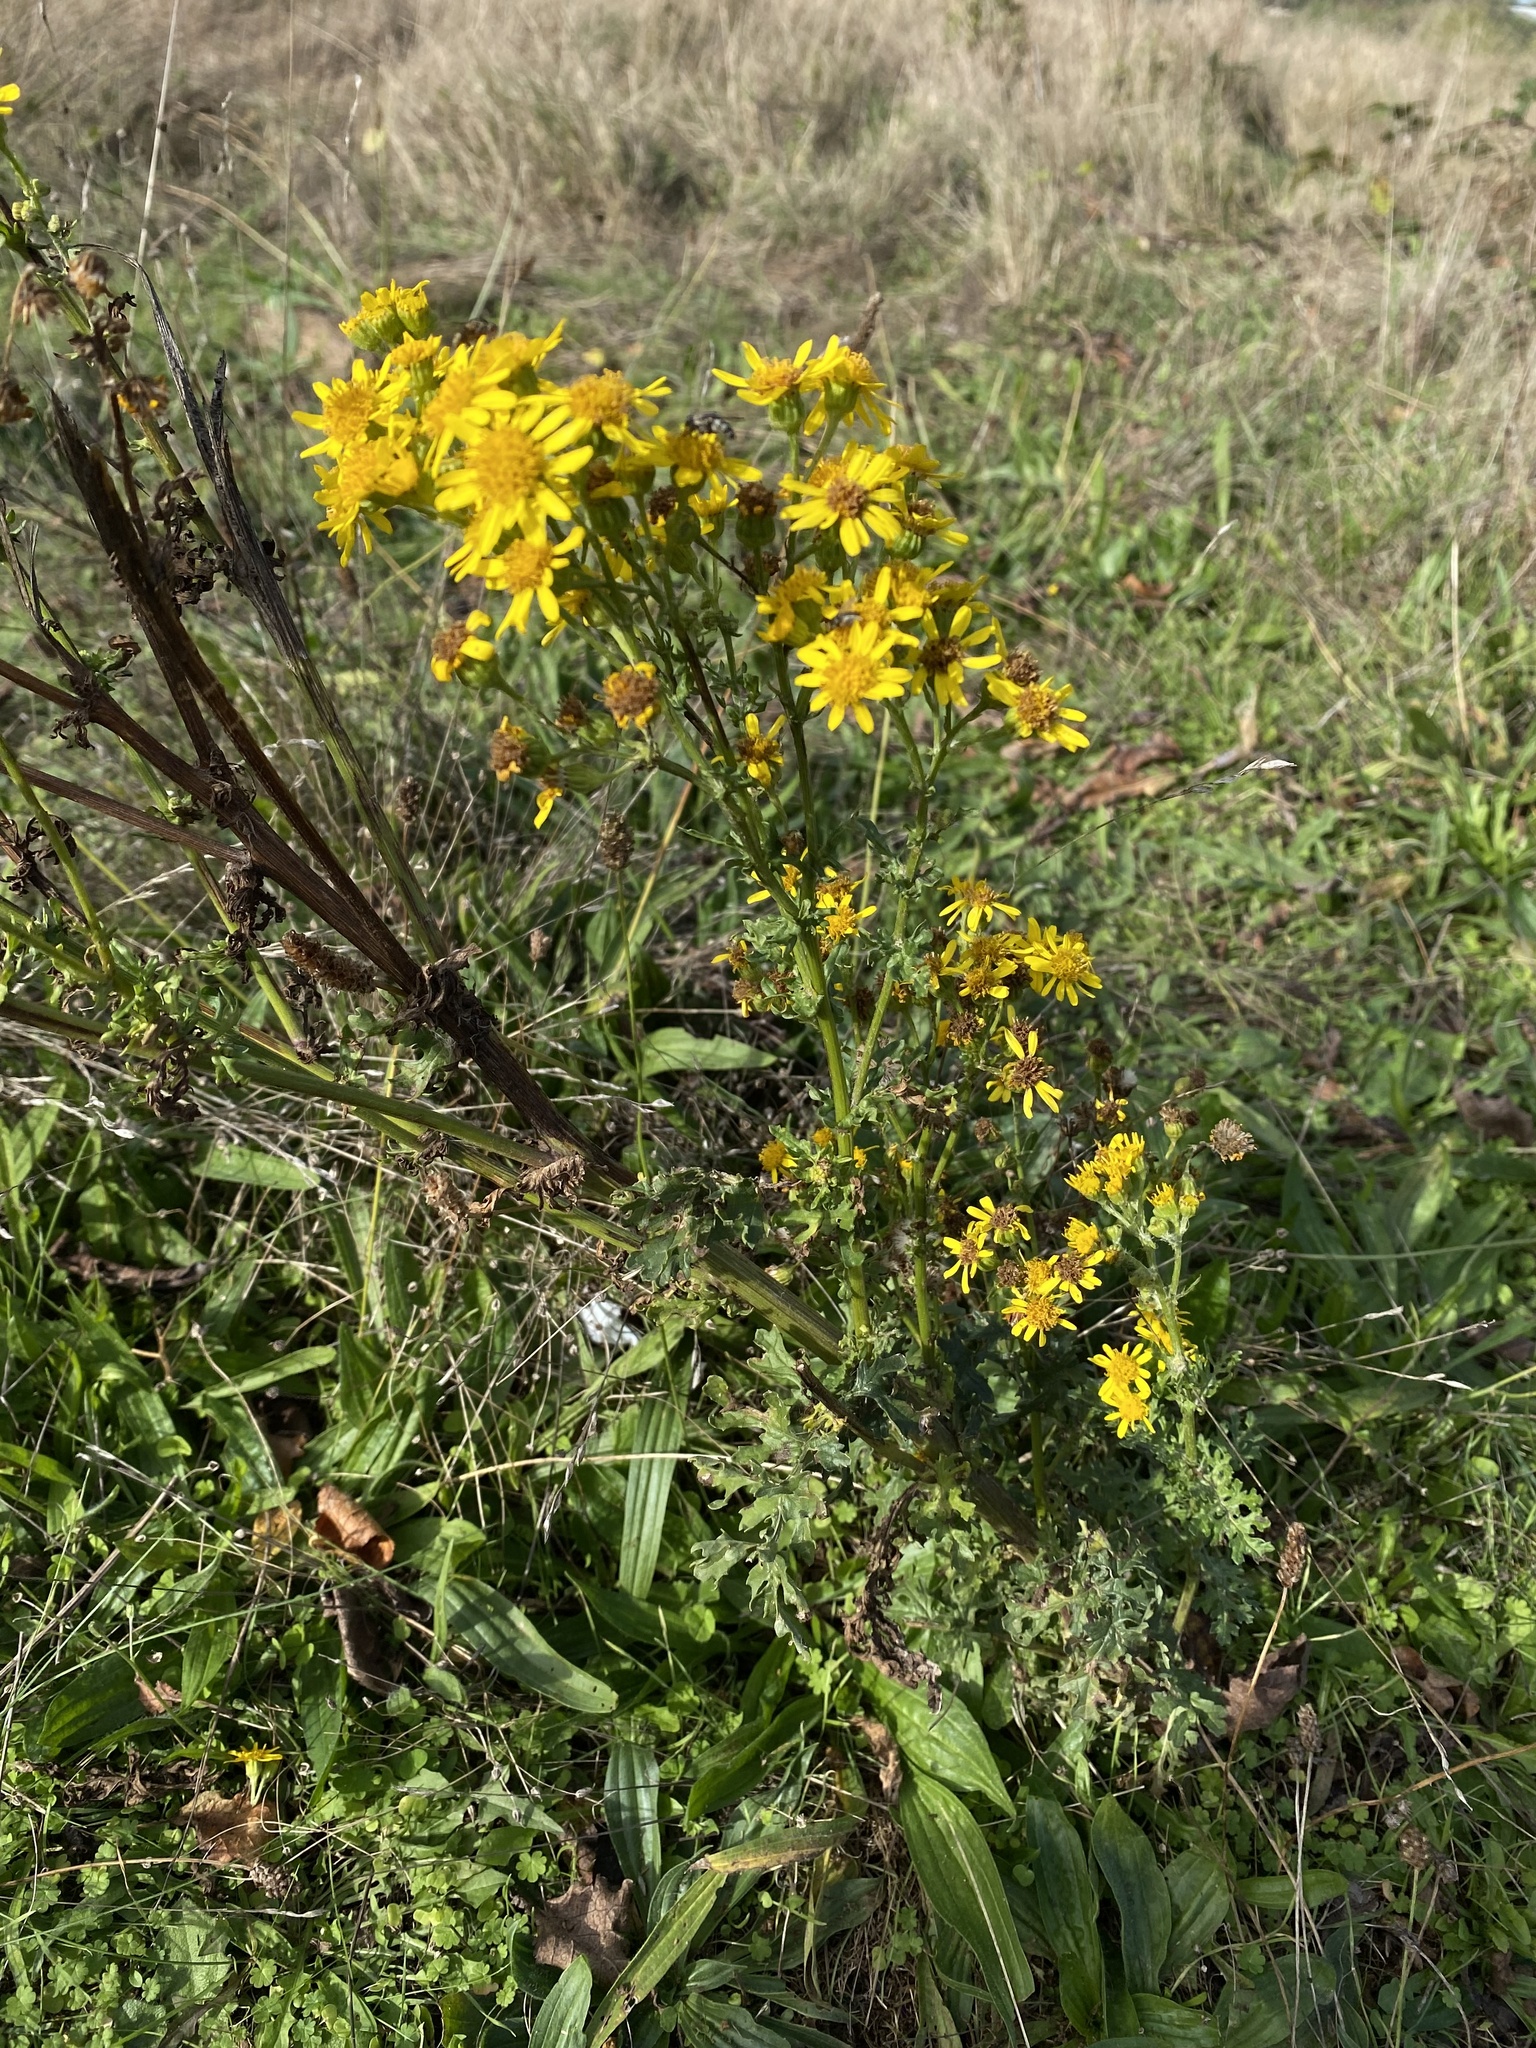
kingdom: Plantae
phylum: Tracheophyta
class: Magnoliopsida
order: Asterales
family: Asteraceae
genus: Jacobaea
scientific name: Jacobaea vulgaris
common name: Stinking willie
